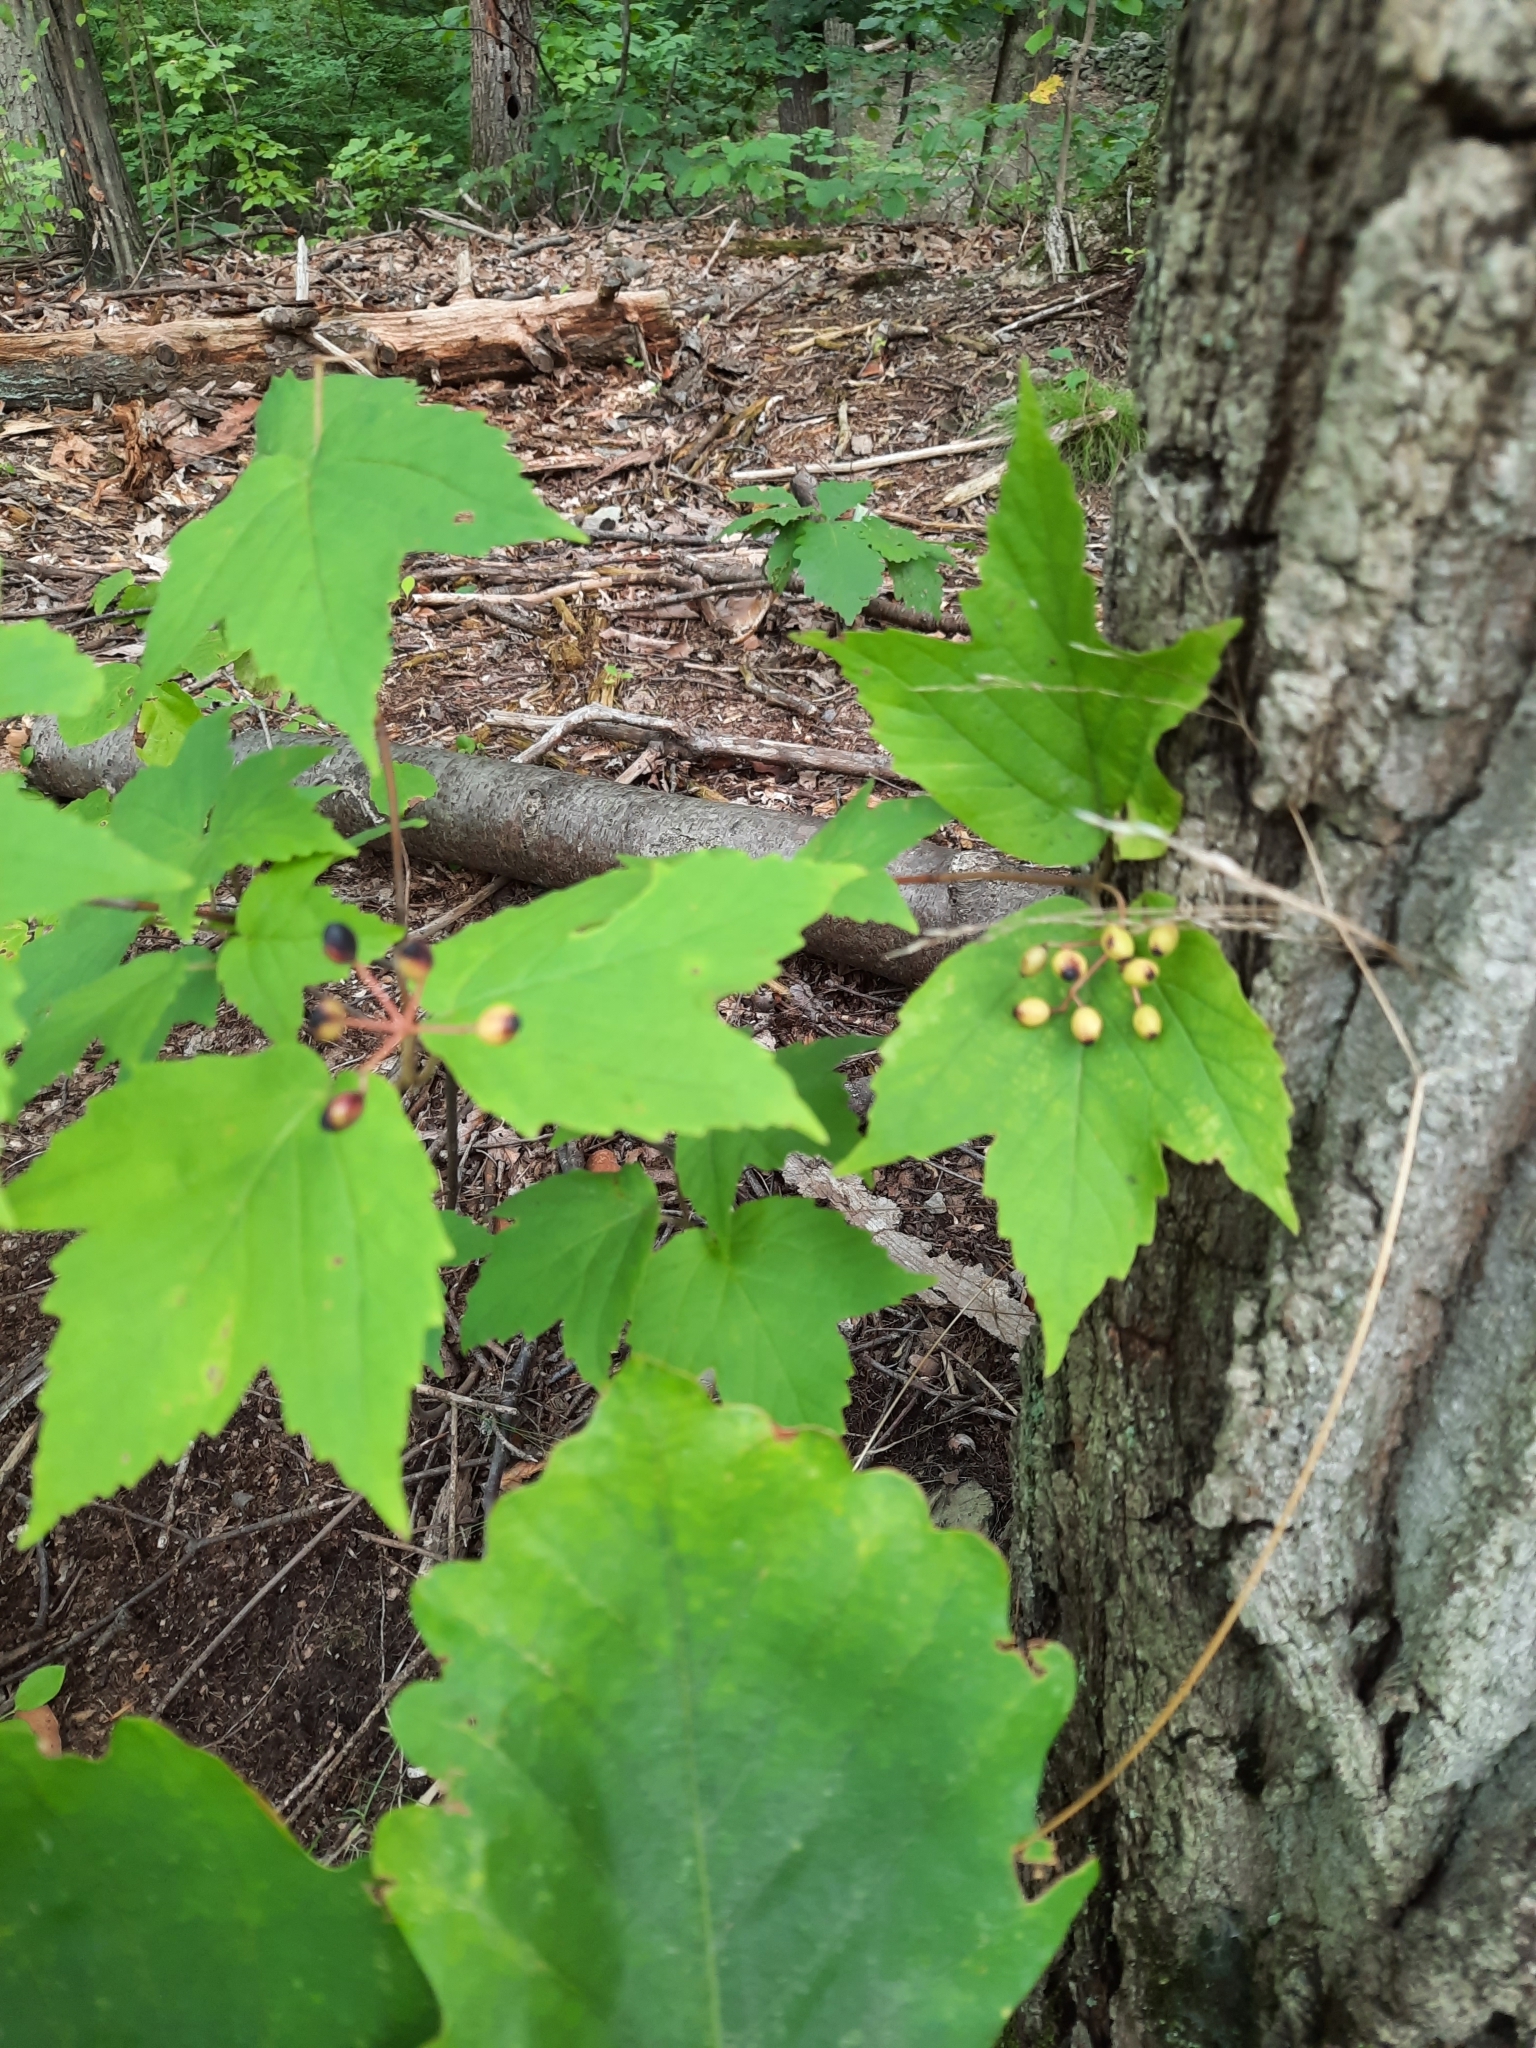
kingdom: Plantae
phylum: Tracheophyta
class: Magnoliopsida
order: Dipsacales
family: Viburnaceae
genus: Viburnum
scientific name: Viburnum acerifolium
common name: Dockmackie
